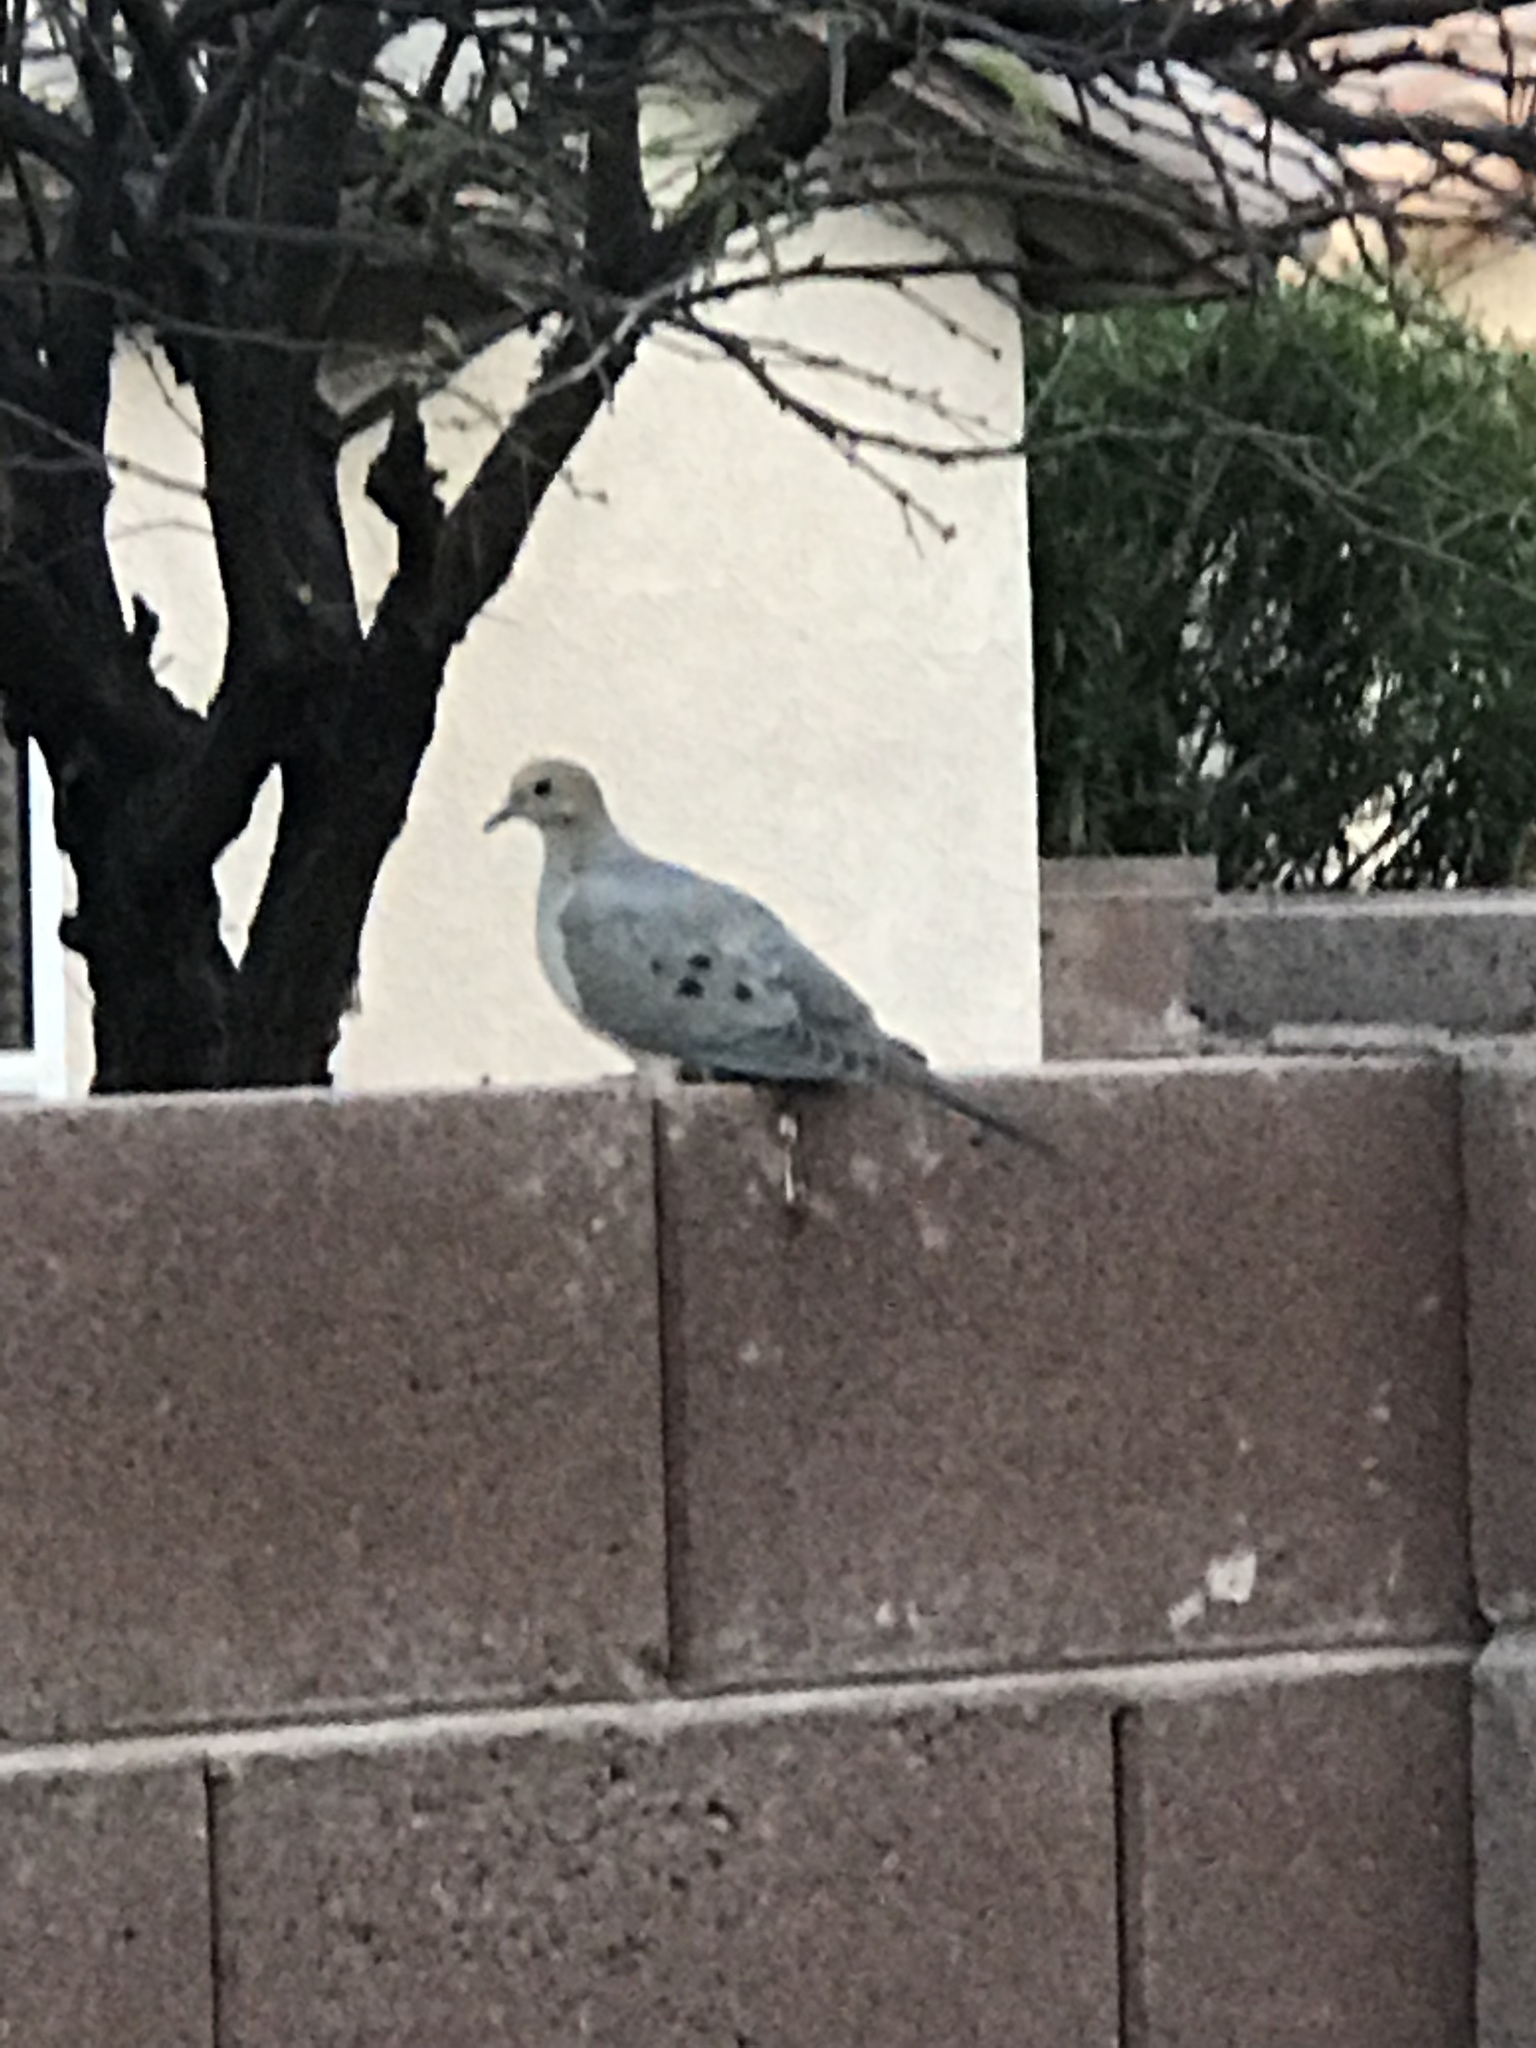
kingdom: Animalia
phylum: Chordata
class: Aves
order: Columbiformes
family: Columbidae
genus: Zenaida
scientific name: Zenaida macroura
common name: Mourning dove
